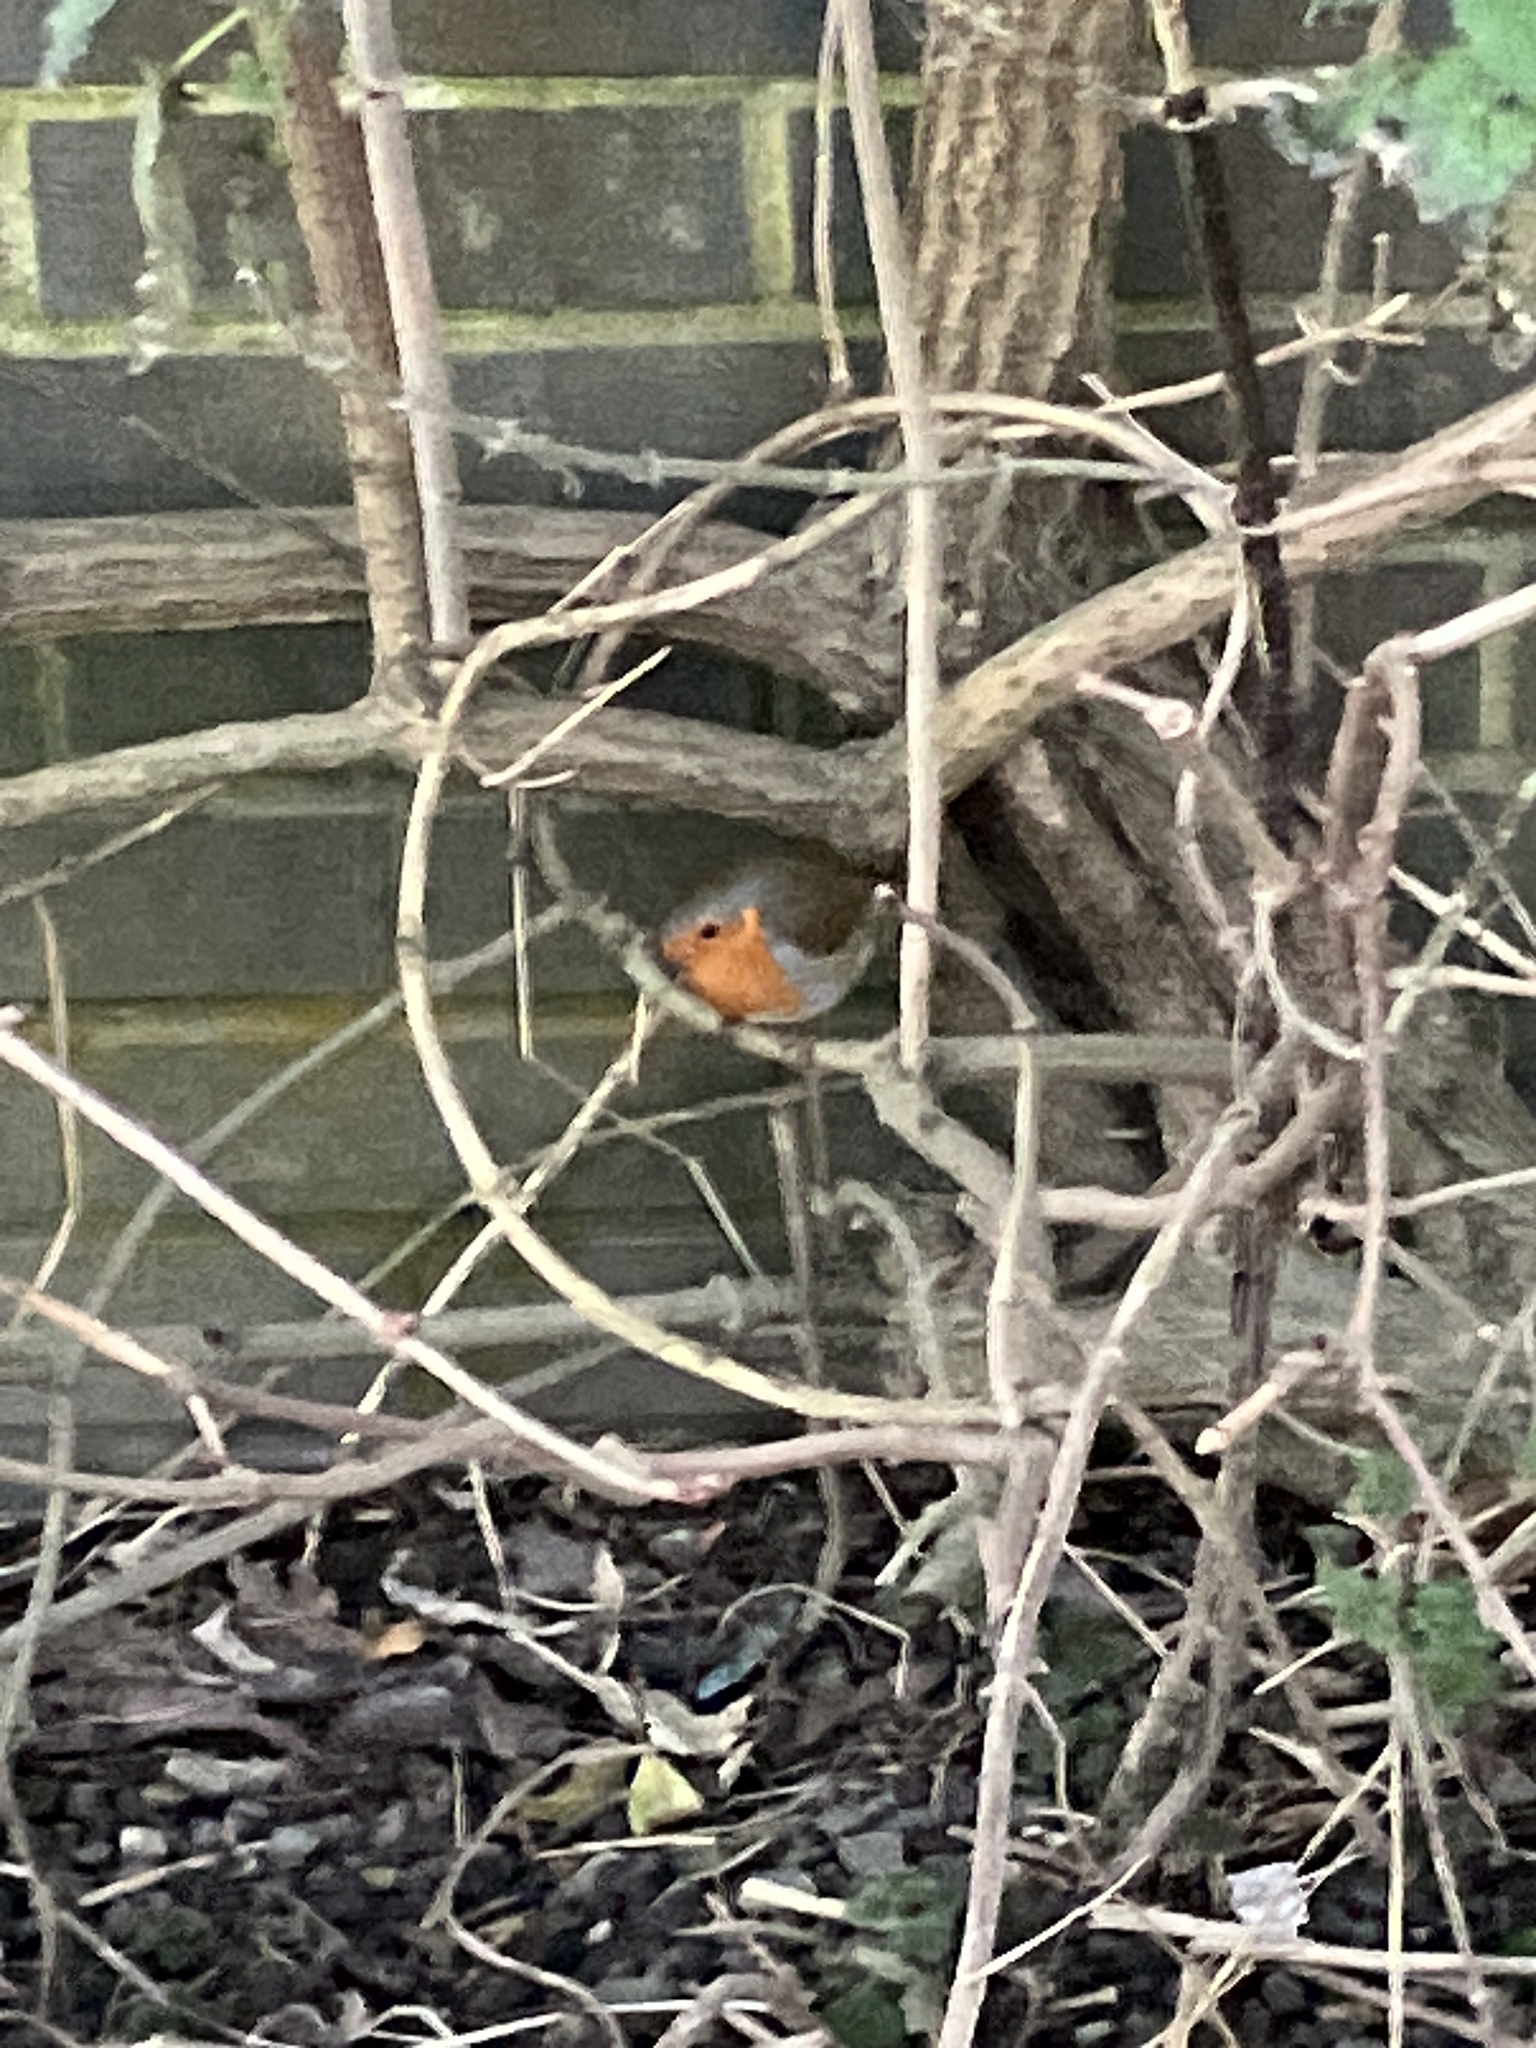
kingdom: Animalia
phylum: Chordata
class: Aves
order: Passeriformes
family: Muscicapidae
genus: Erithacus
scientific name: Erithacus rubecula
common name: European robin
